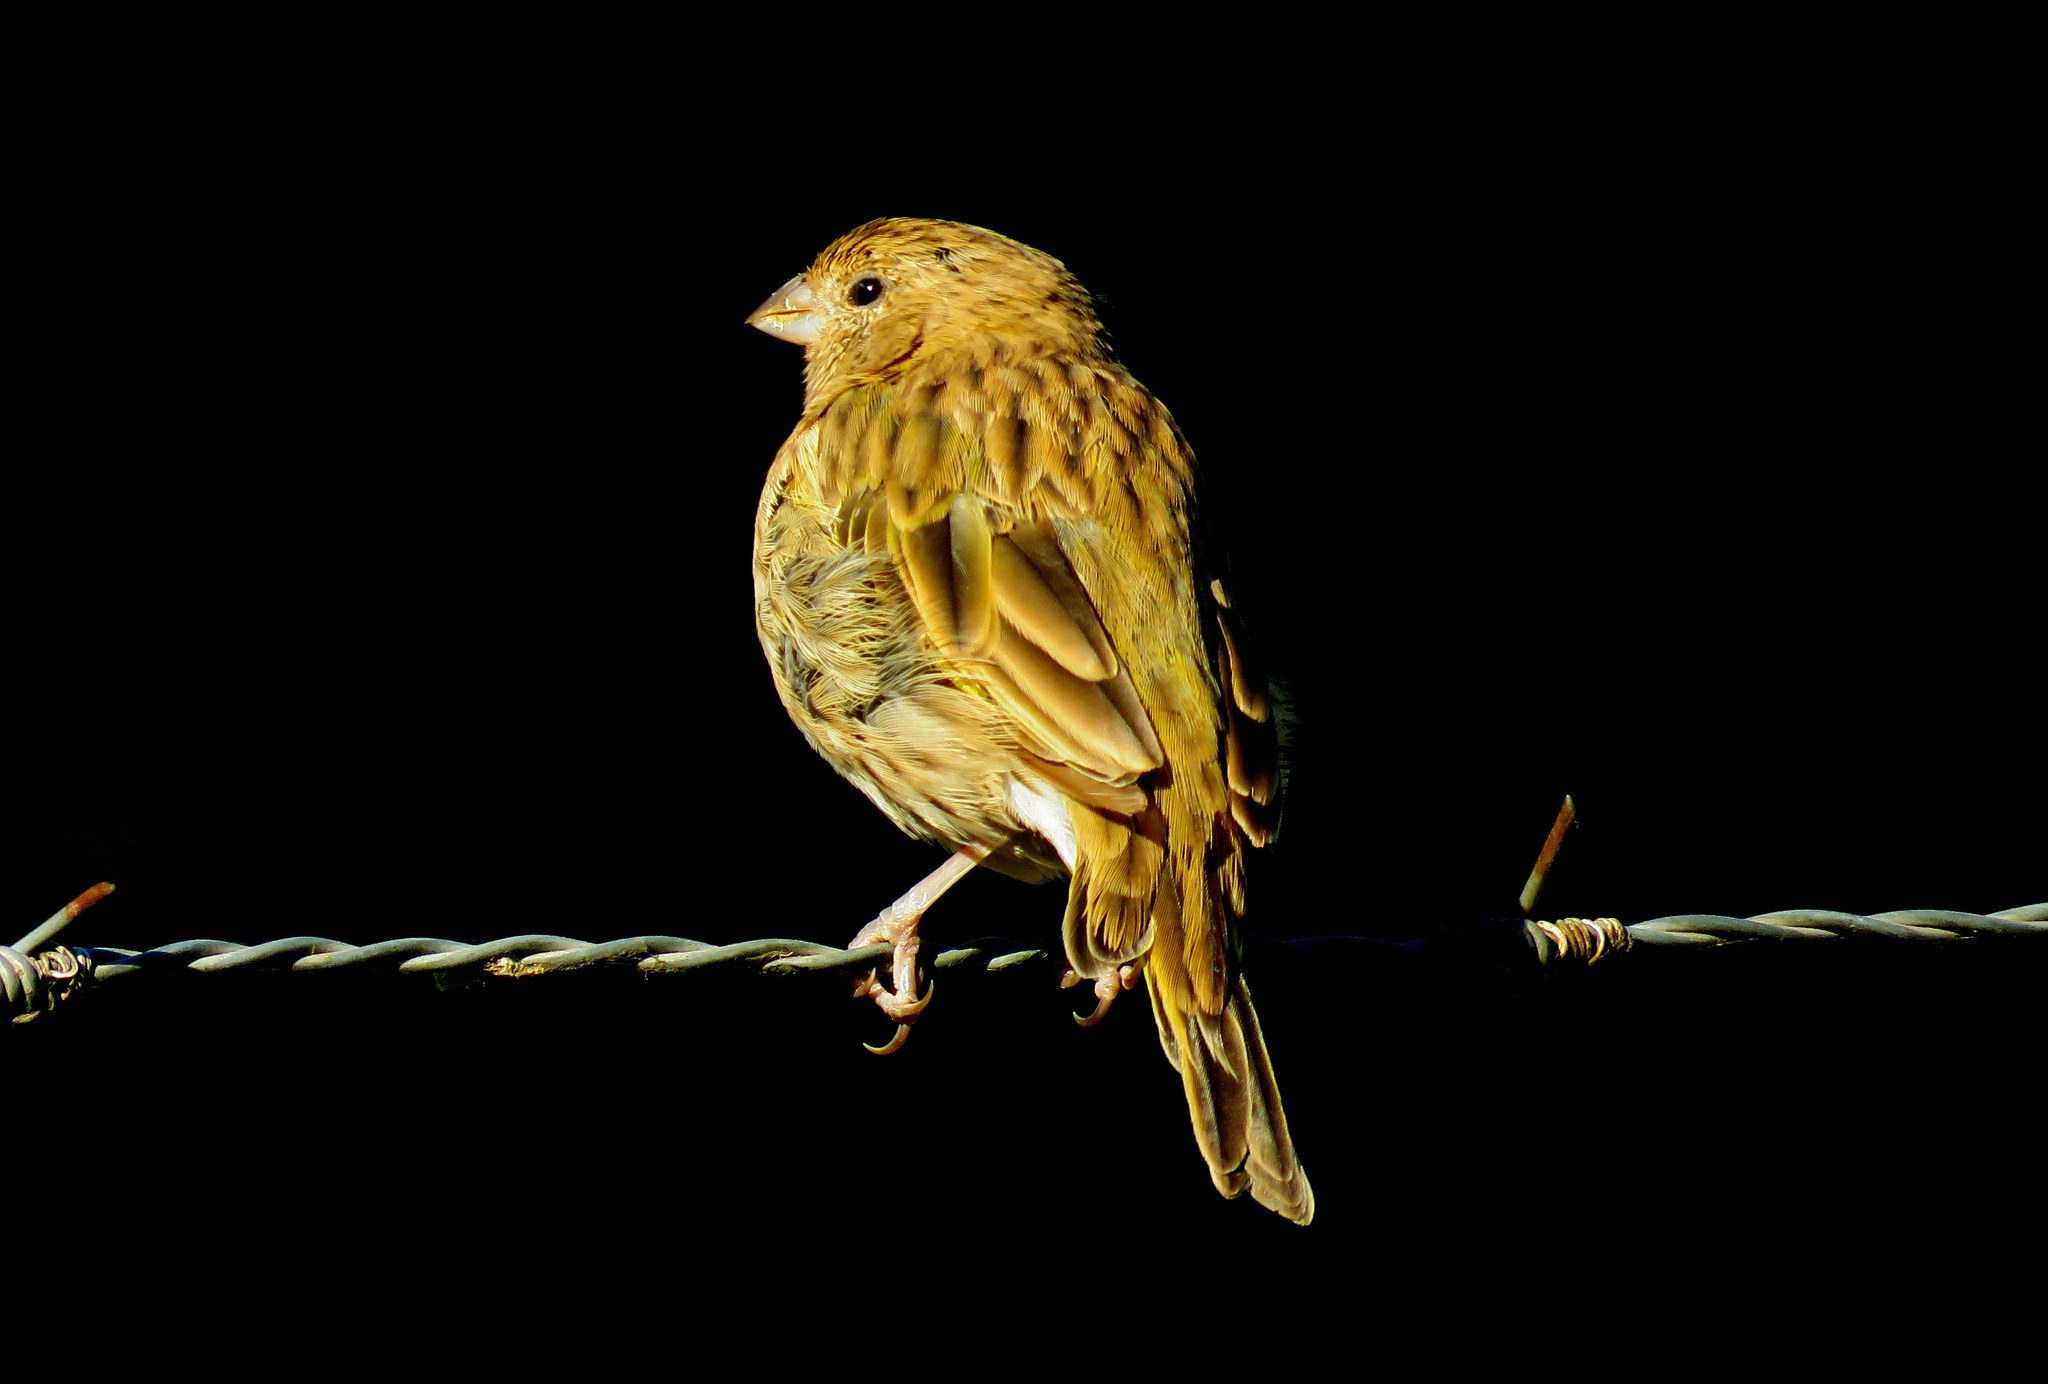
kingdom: Animalia
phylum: Chordata
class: Aves
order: Passeriformes
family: Thraupidae
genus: Sicalis
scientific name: Sicalis flaveola
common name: Saffron finch
